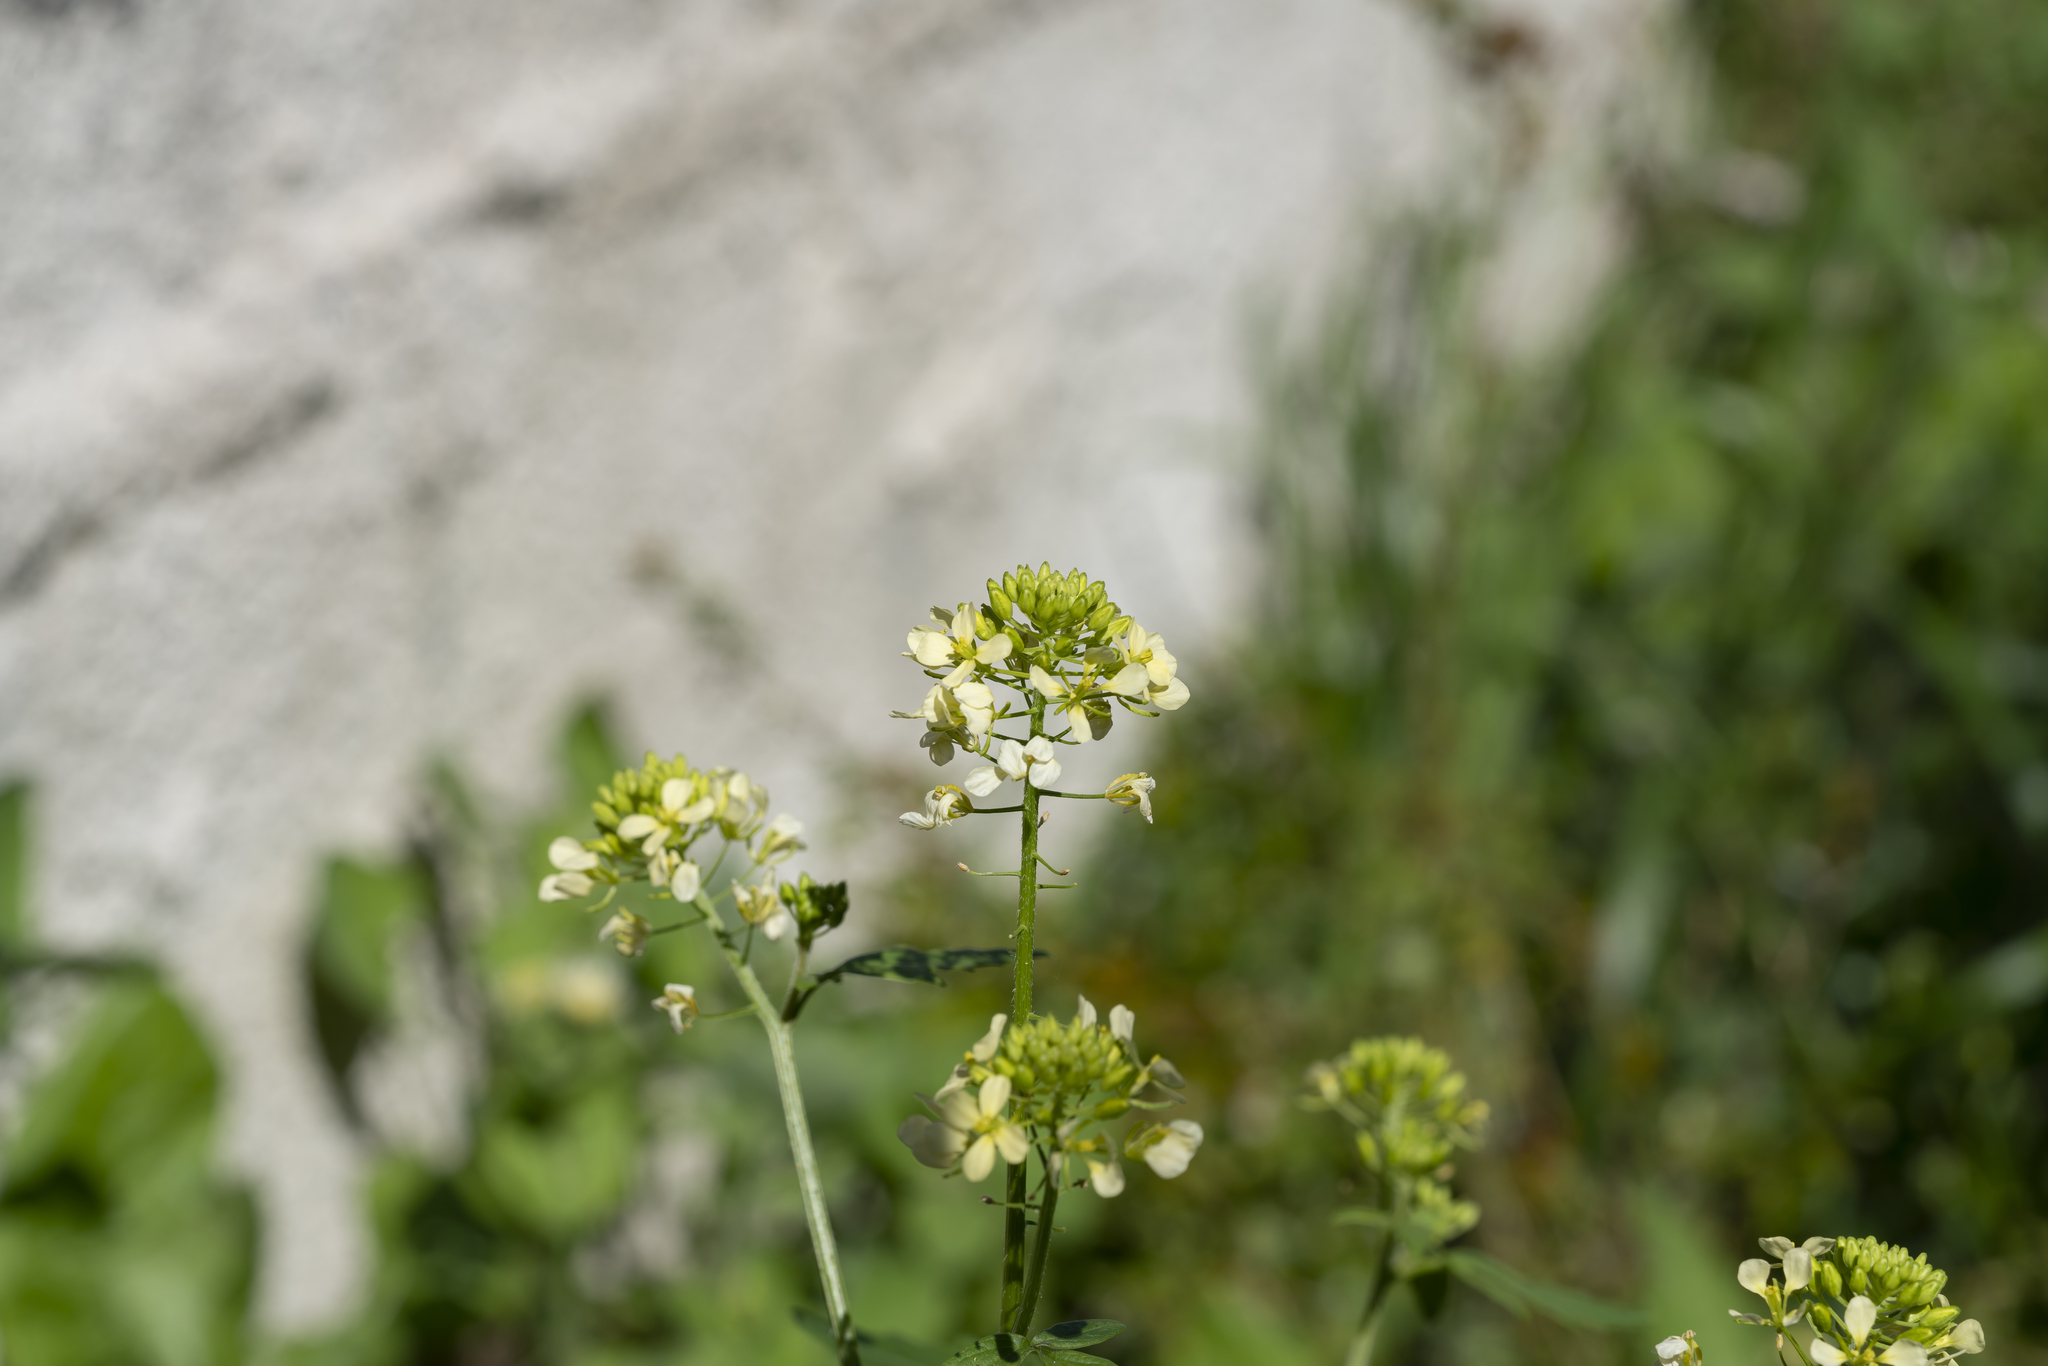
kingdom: Plantae
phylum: Tracheophyta
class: Magnoliopsida
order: Brassicales
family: Brassicaceae
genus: Sinapis
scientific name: Sinapis
